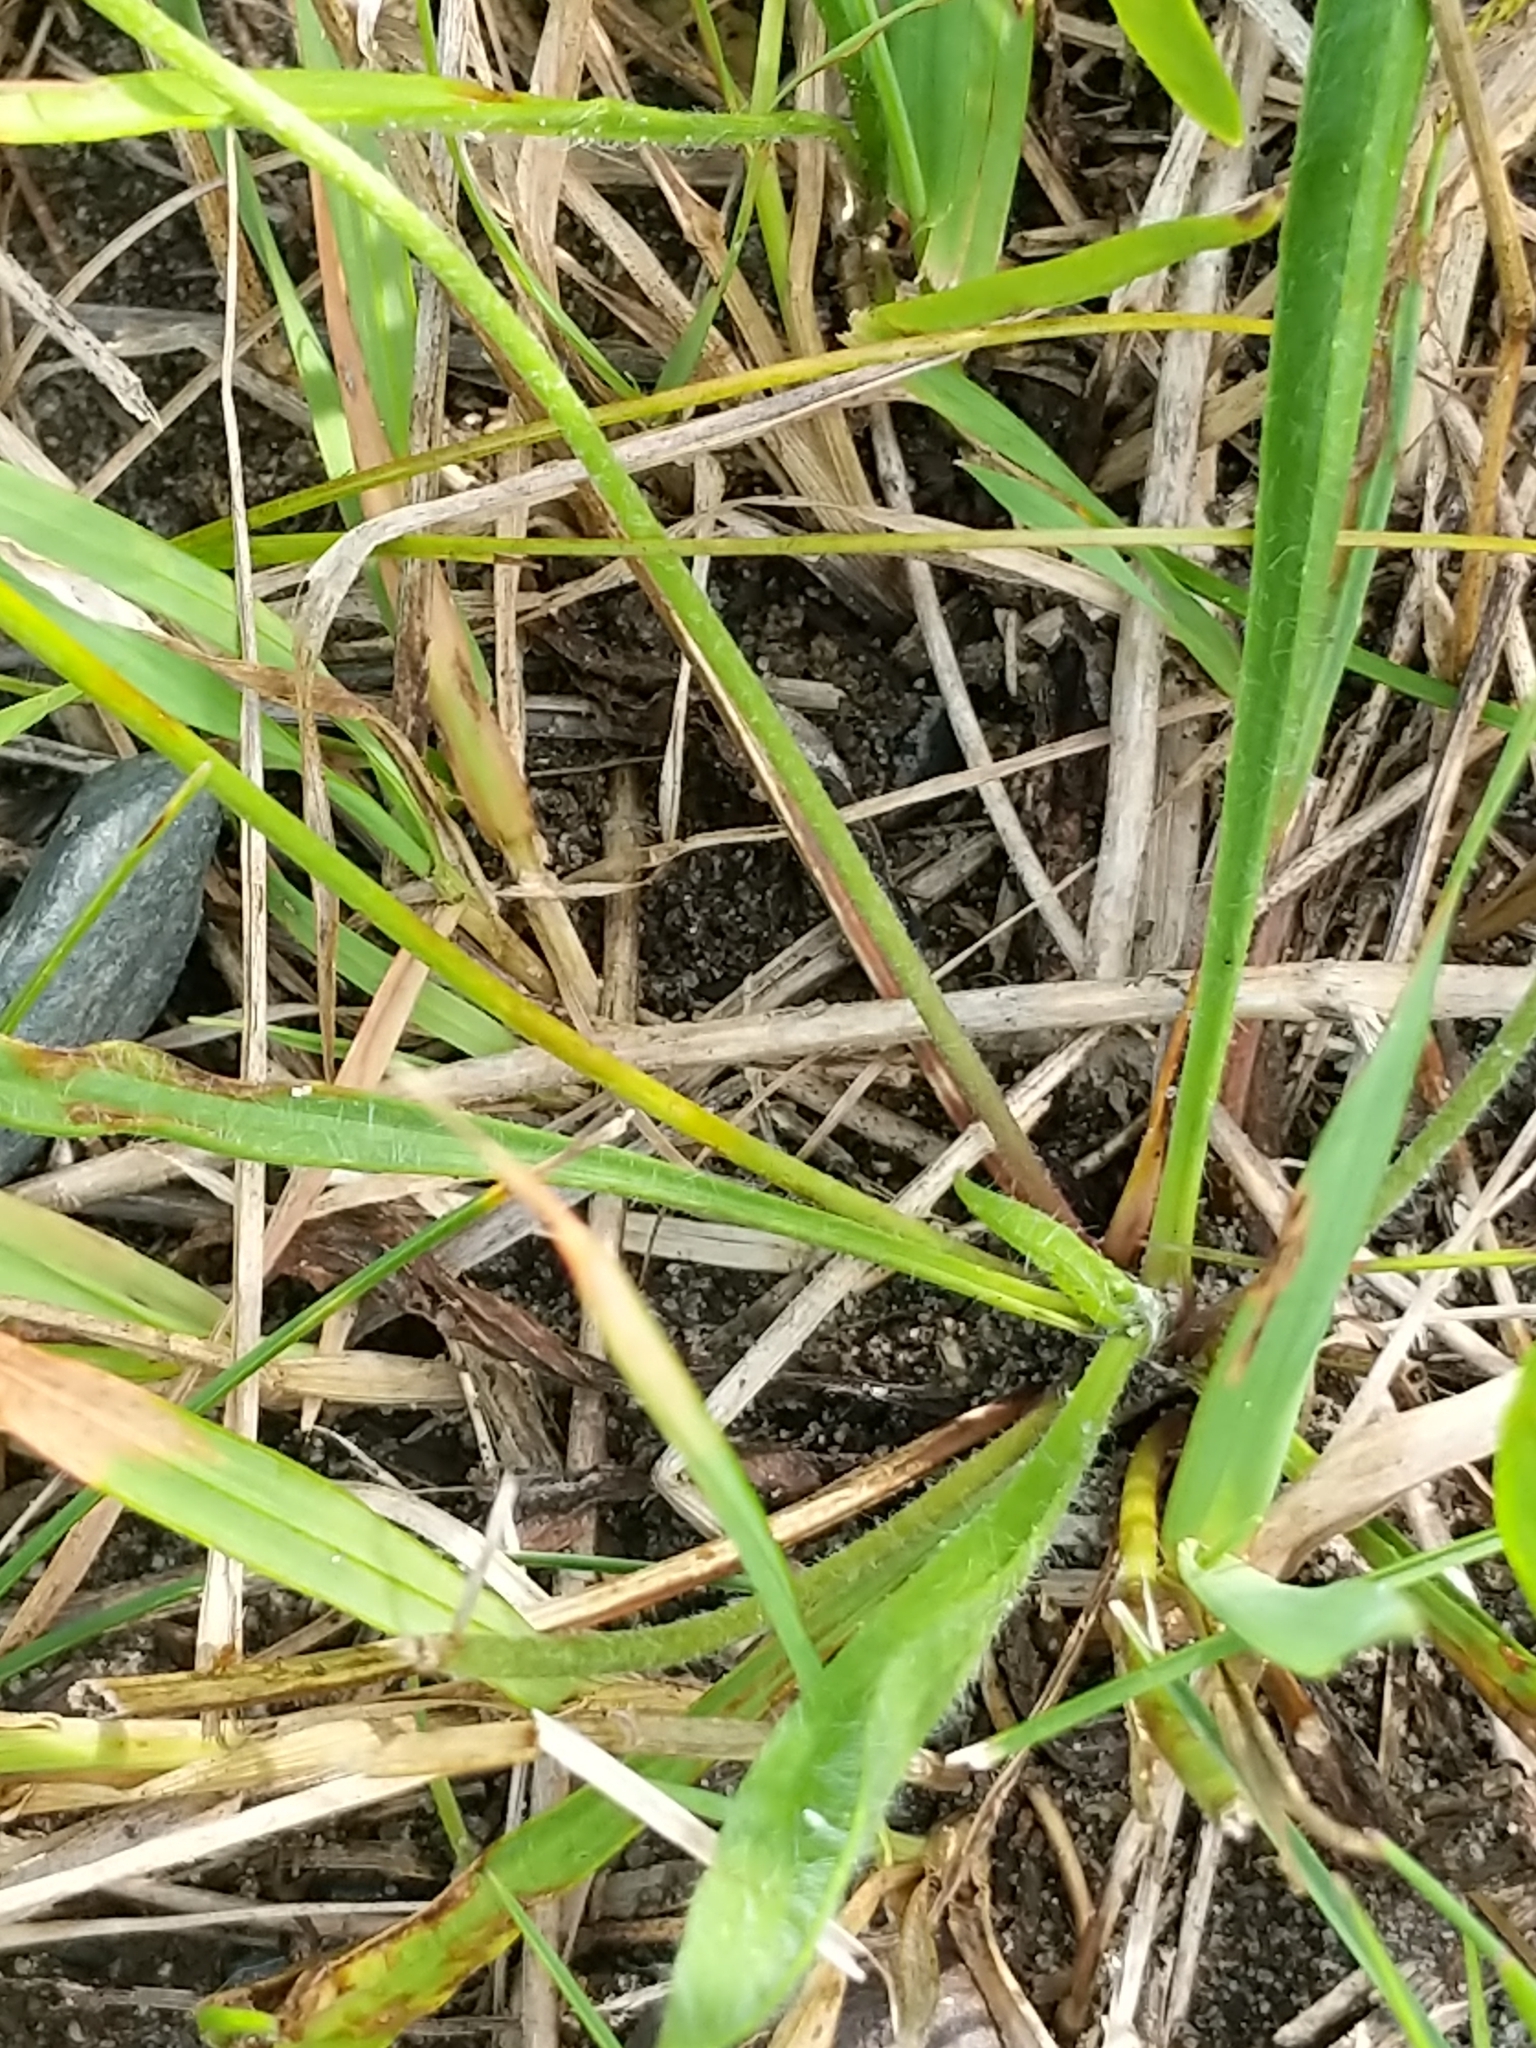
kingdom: Plantae
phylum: Tracheophyta
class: Magnoliopsida
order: Lamiales
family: Plantaginaceae
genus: Plantago
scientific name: Plantago lanceolata
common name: Ribwort plantain
